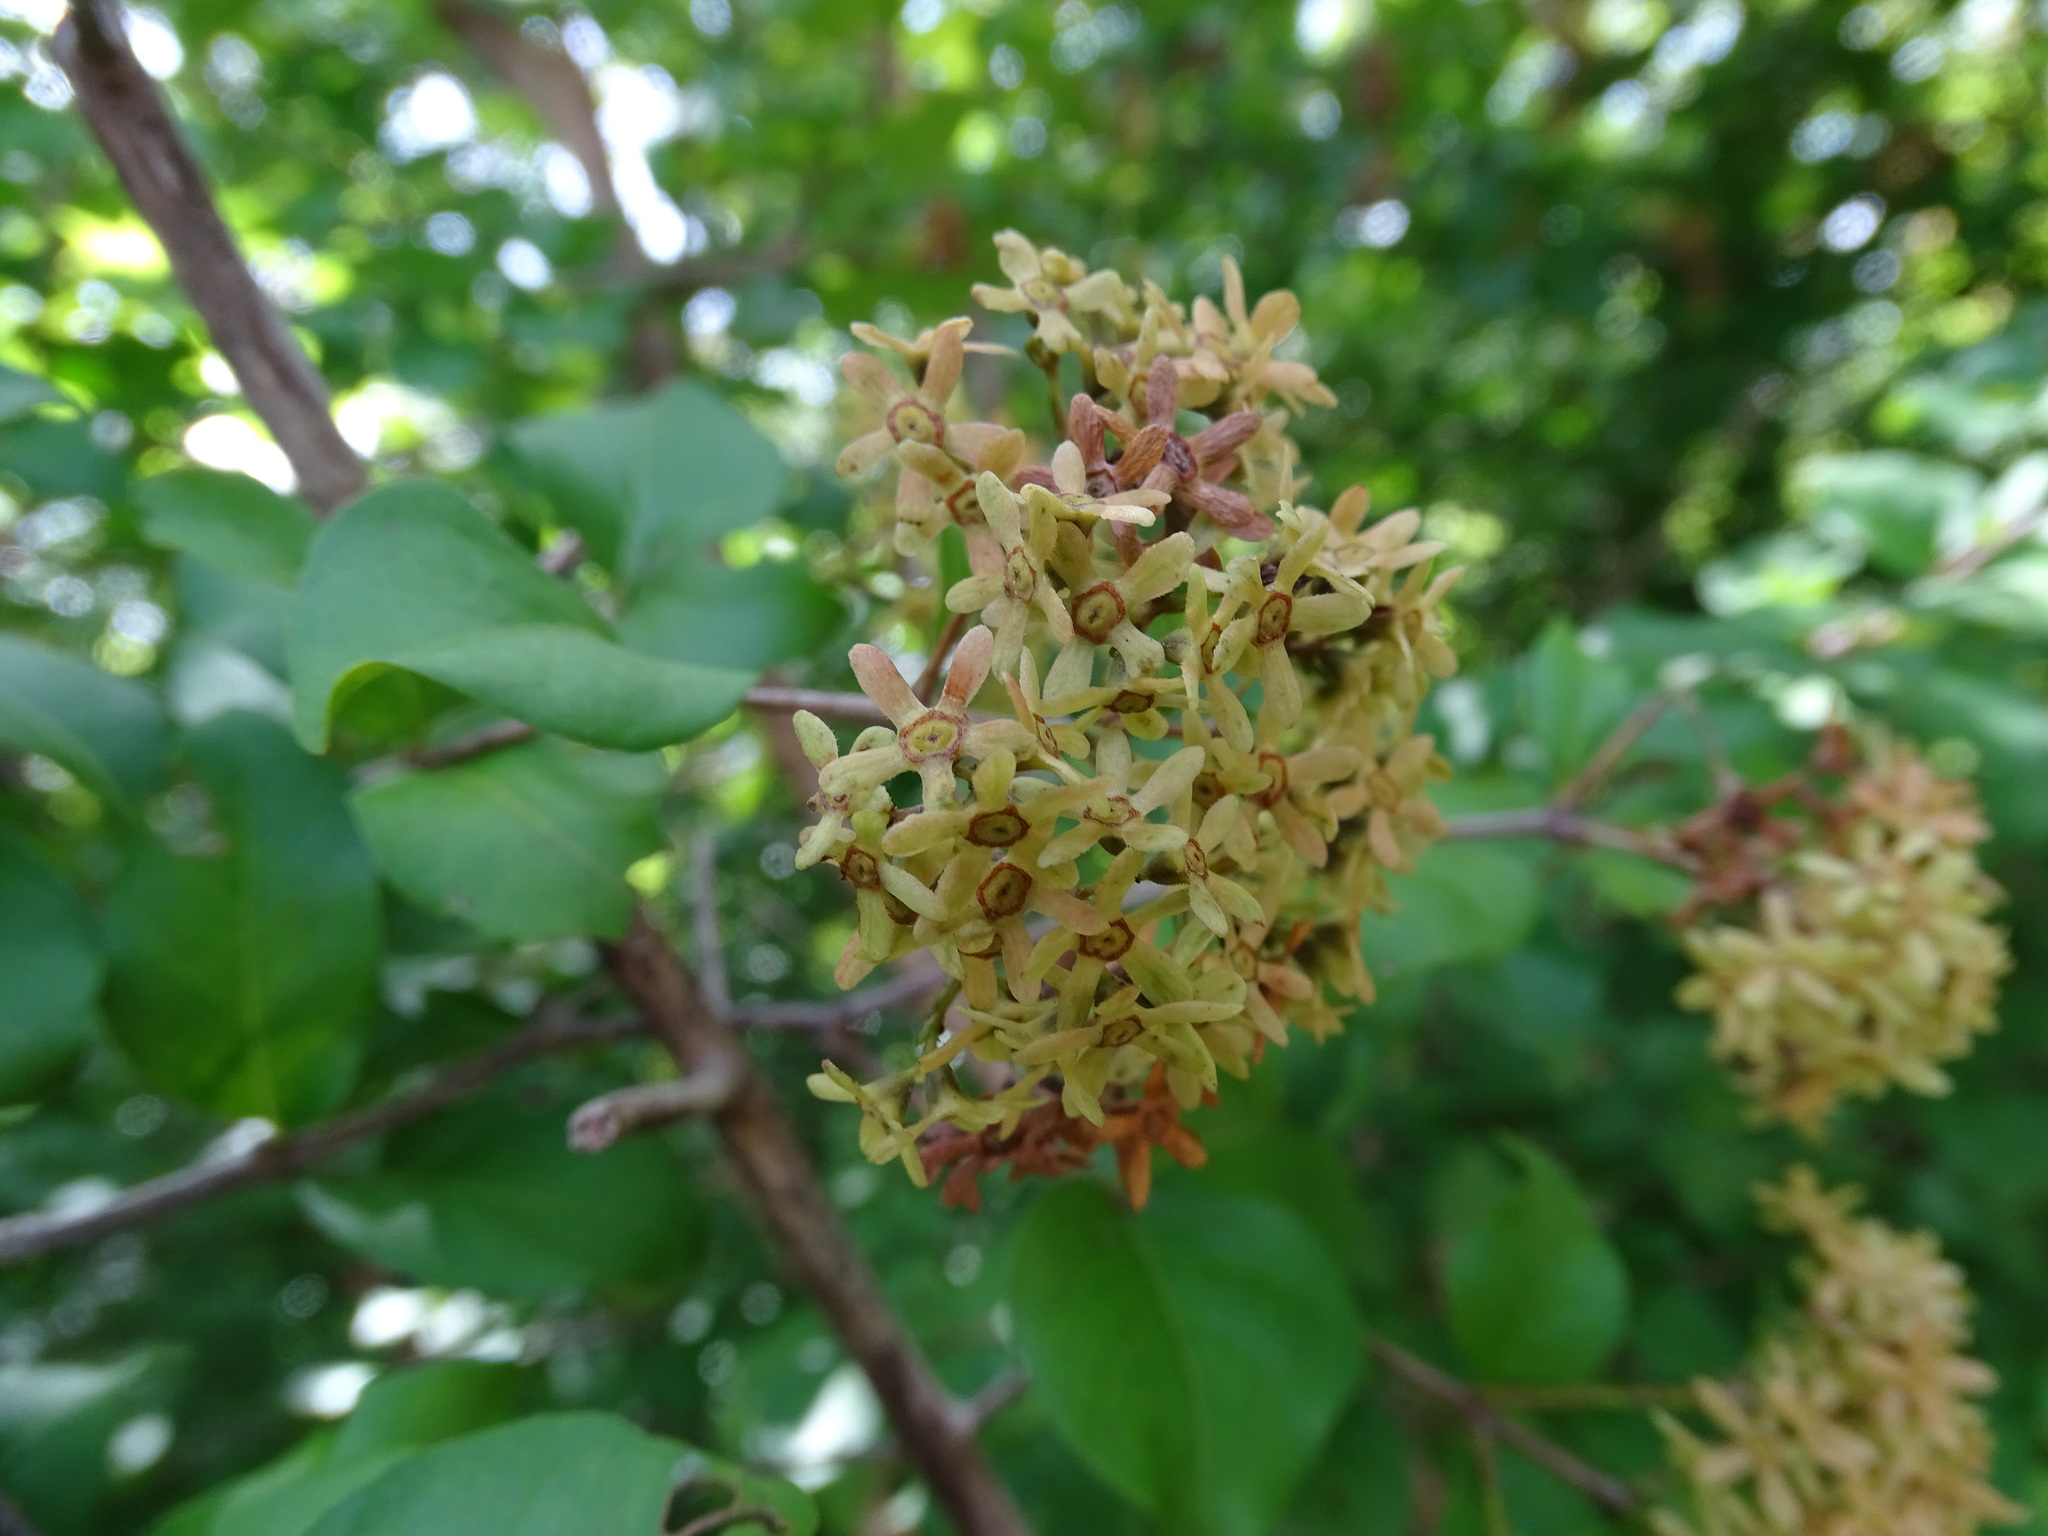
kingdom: Plantae
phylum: Tracheophyta
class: Magnoliopsida
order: Gentianales
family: Rubiaceae
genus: Machaonia
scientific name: Machaonia lindeniana
